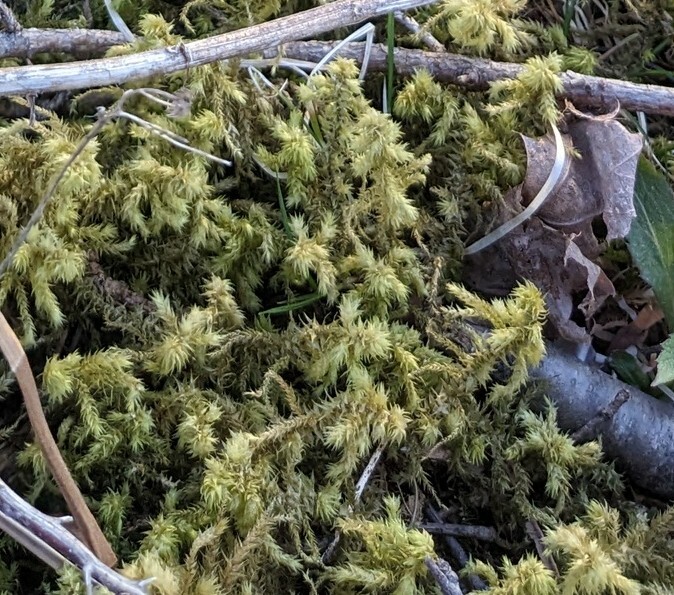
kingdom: Plantae
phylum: Bryophyta
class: Bryopsida
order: Hypnales
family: Hylocomiaceae
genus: Hylocomiadelphus
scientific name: Hylocomiadelphus triquetrus
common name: Rough goose neck moss
